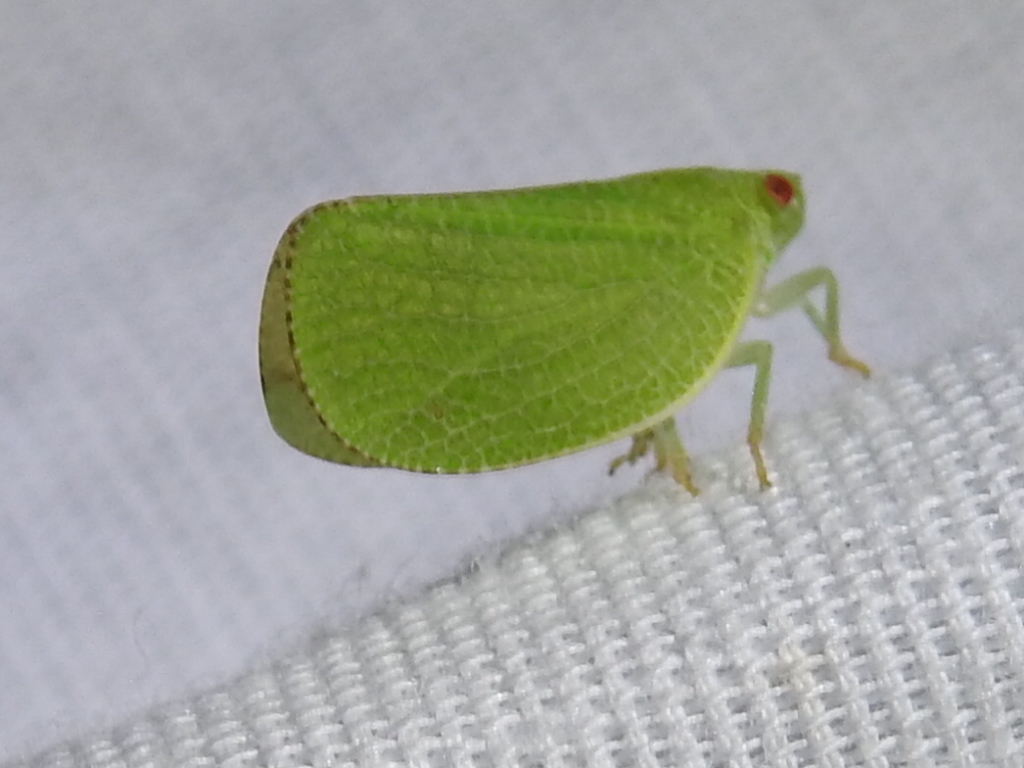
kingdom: Animalia
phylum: Arthropoda
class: Insecta
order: Hemiptera
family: Acanaloniidae
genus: Acanalonia
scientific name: Acanalonia conica
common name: Green cone-headed planthopper
